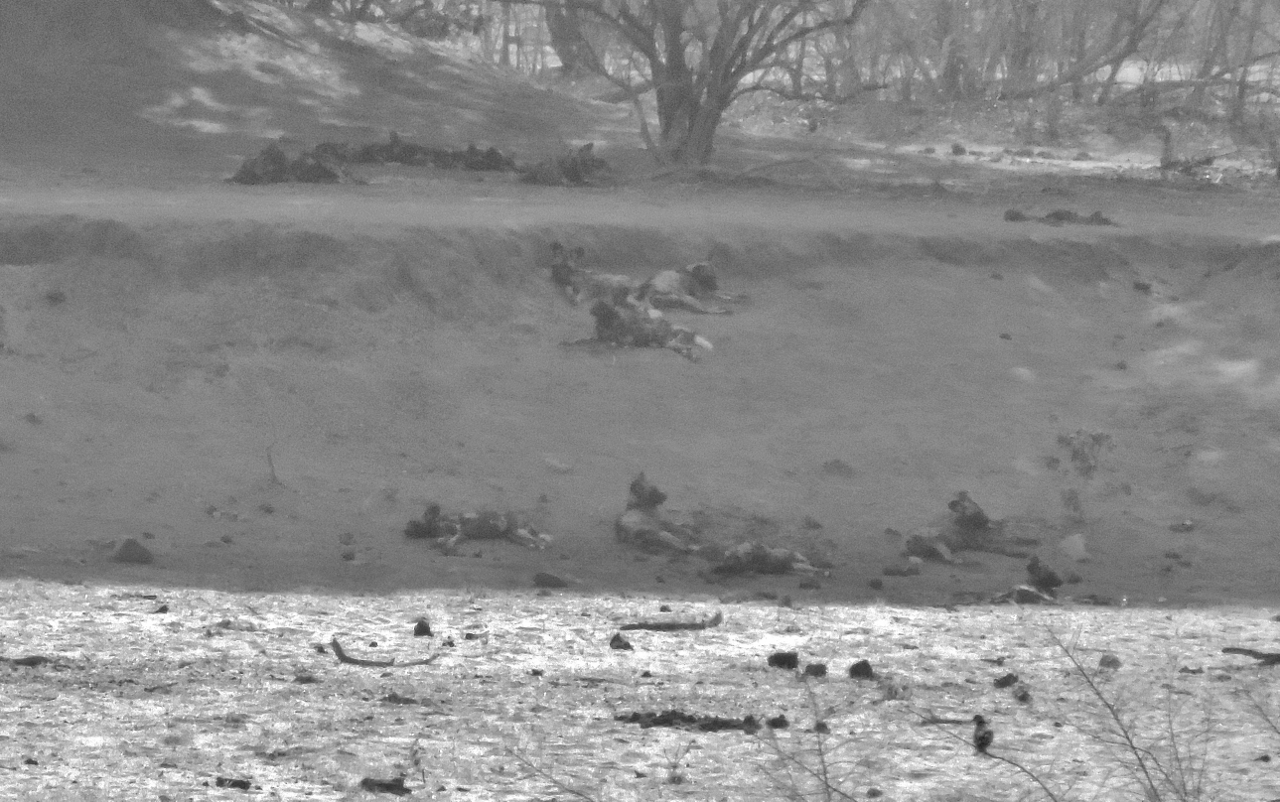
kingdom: Animalia
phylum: Chordata
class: Mammalia
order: Carnivora
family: Canidae
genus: Lycaon
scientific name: Lycaon pictus
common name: African wild dog
